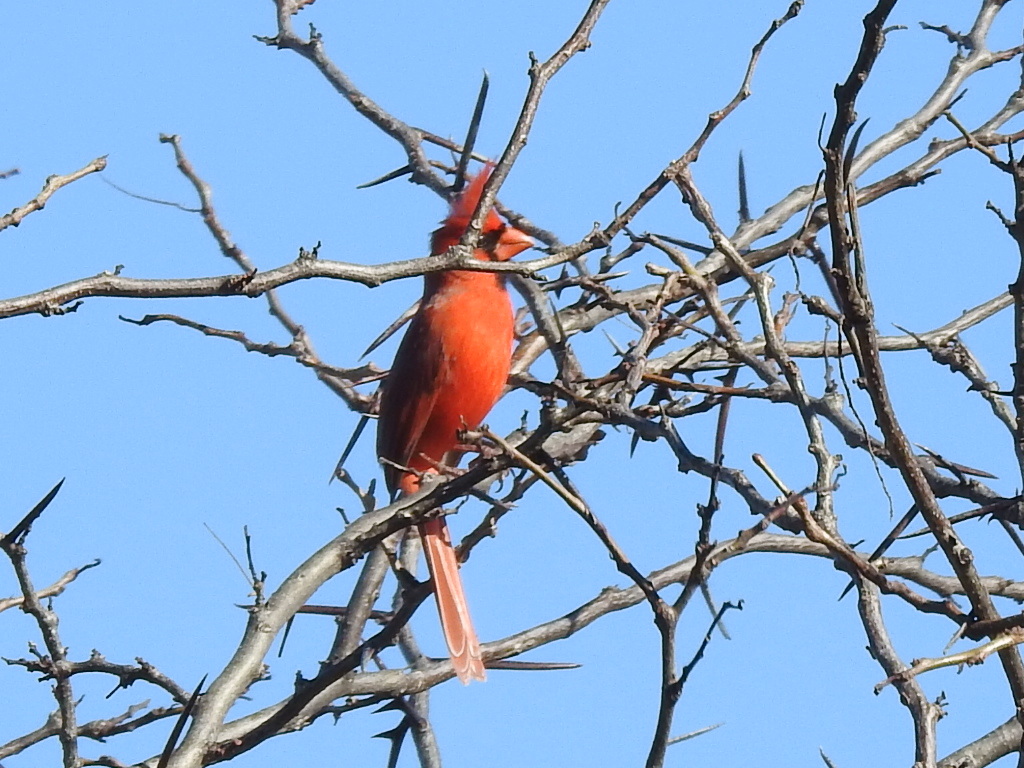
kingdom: Animalia
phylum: Chordata
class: Aves
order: Passeriformes
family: Cardinalidae
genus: Cardinalis
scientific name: Cardinalis cardinalis
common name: Northern cardinal
